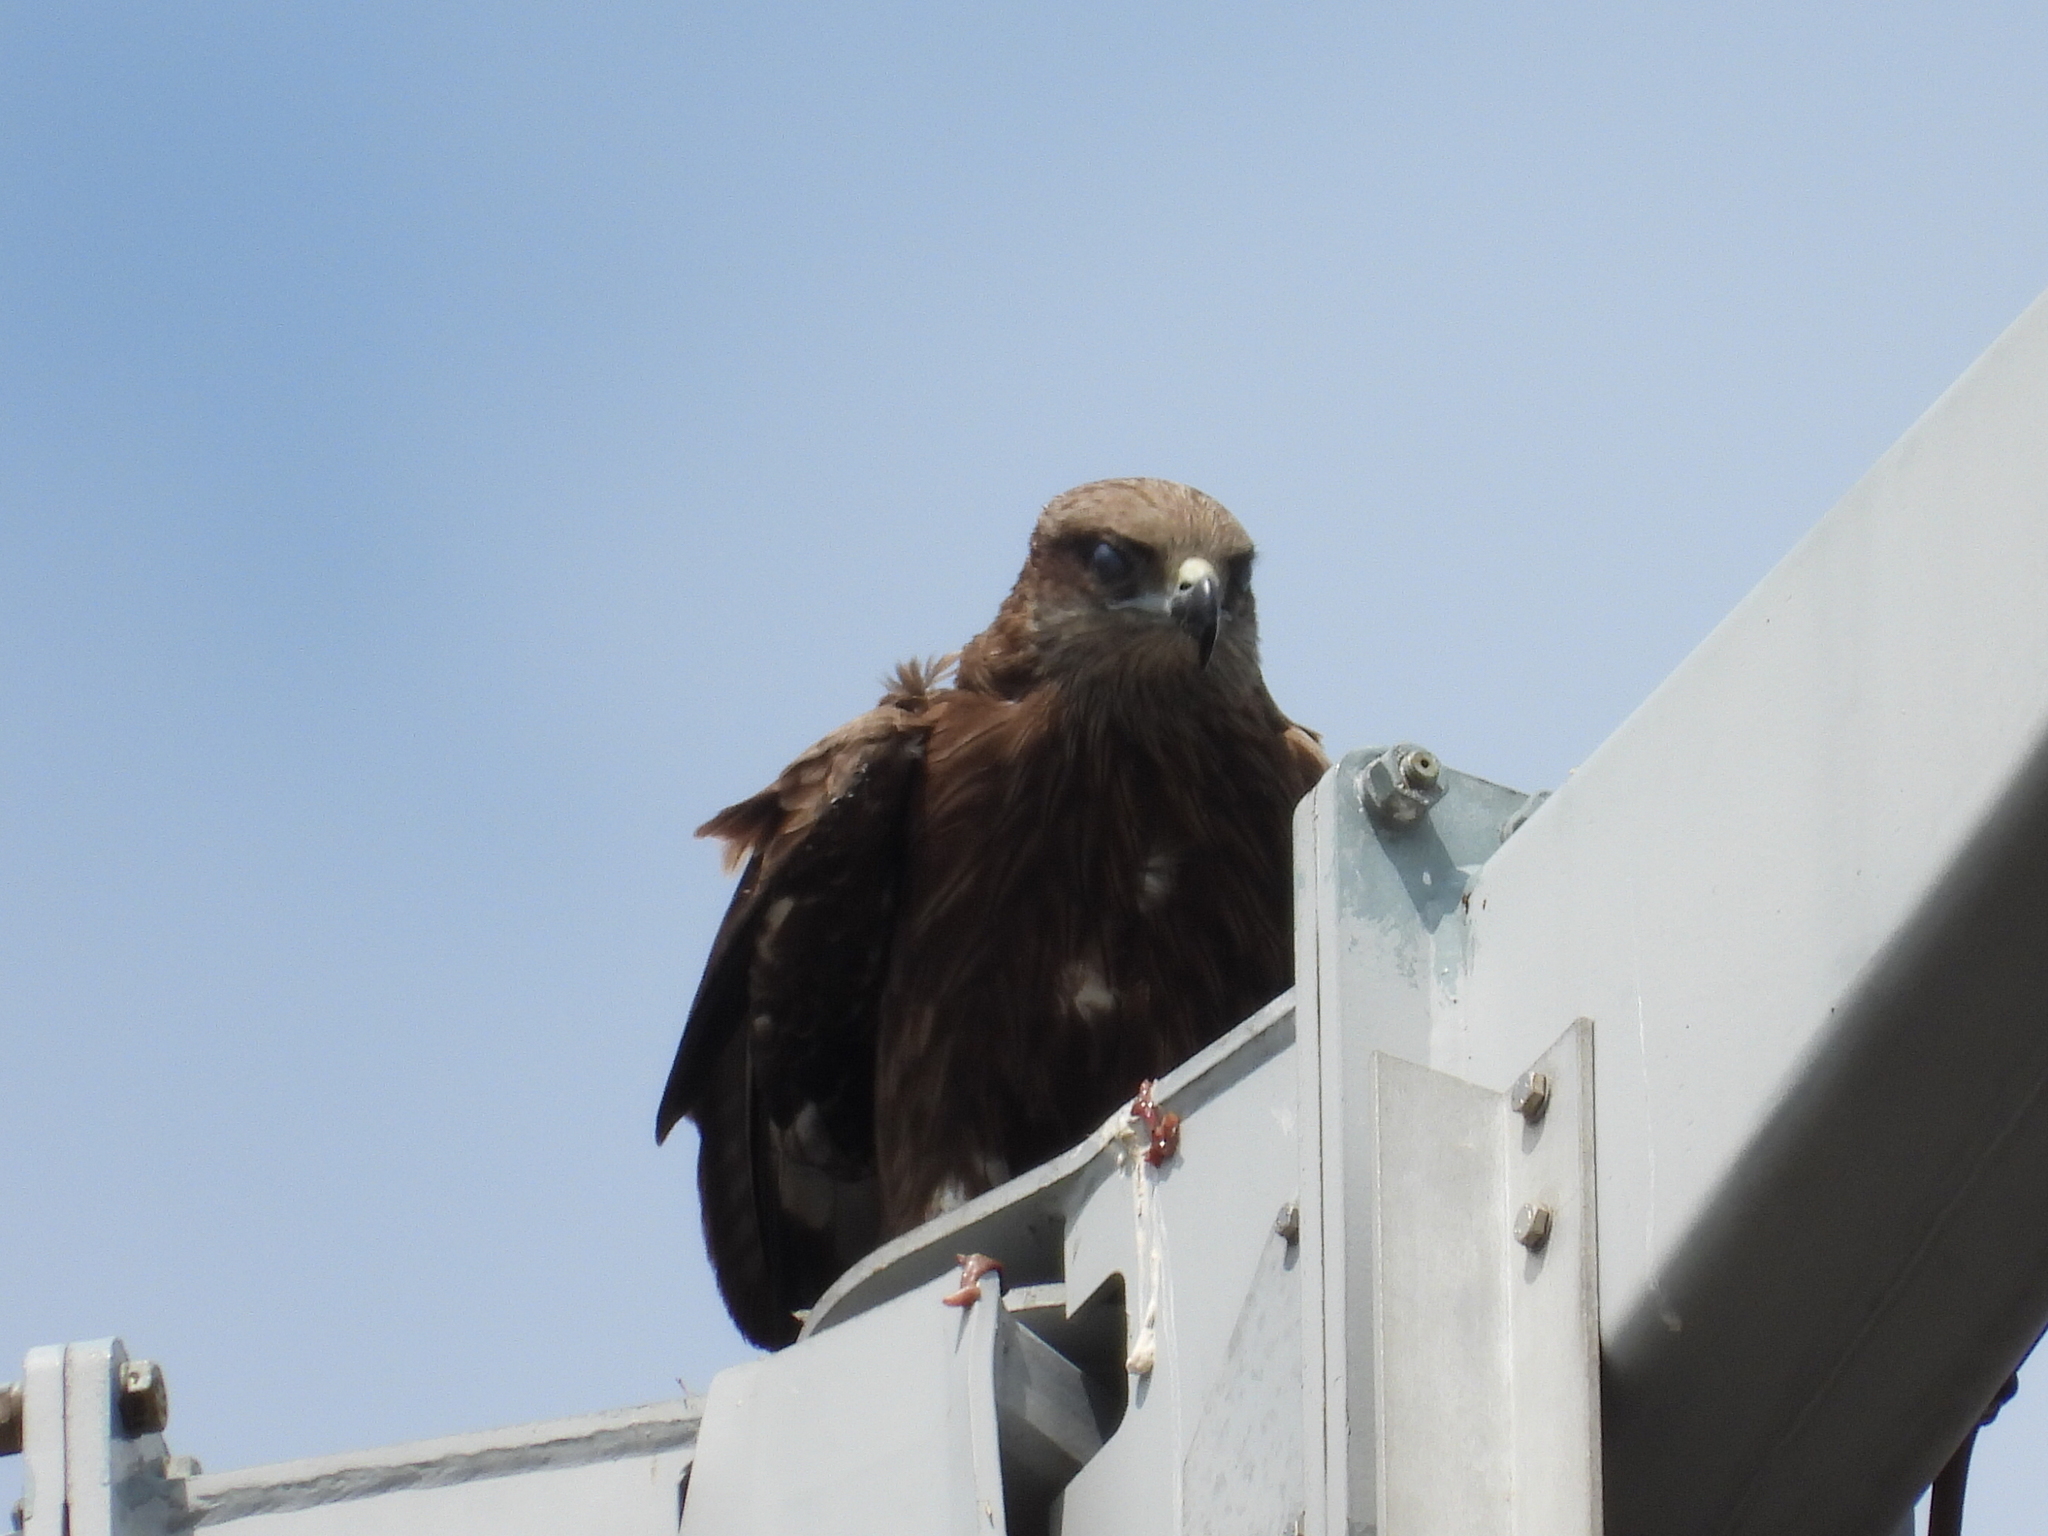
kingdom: Animalia
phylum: Chordata
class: Aves
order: Accipitriformes
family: Accipitridae
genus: Milvus
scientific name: Milvus migrans
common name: Black kite
